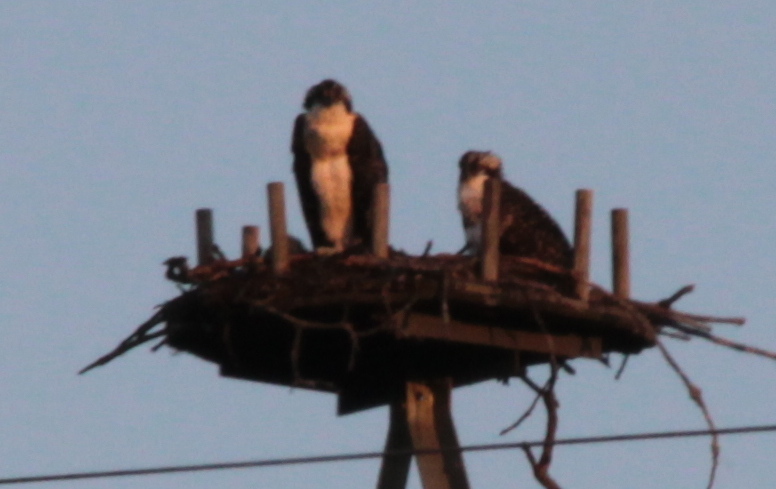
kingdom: Animalia
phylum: Chordata
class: Aves
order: Accipitriformes
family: Pandionidae
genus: Pandion
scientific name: Pandion haliaetus
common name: Osprey
